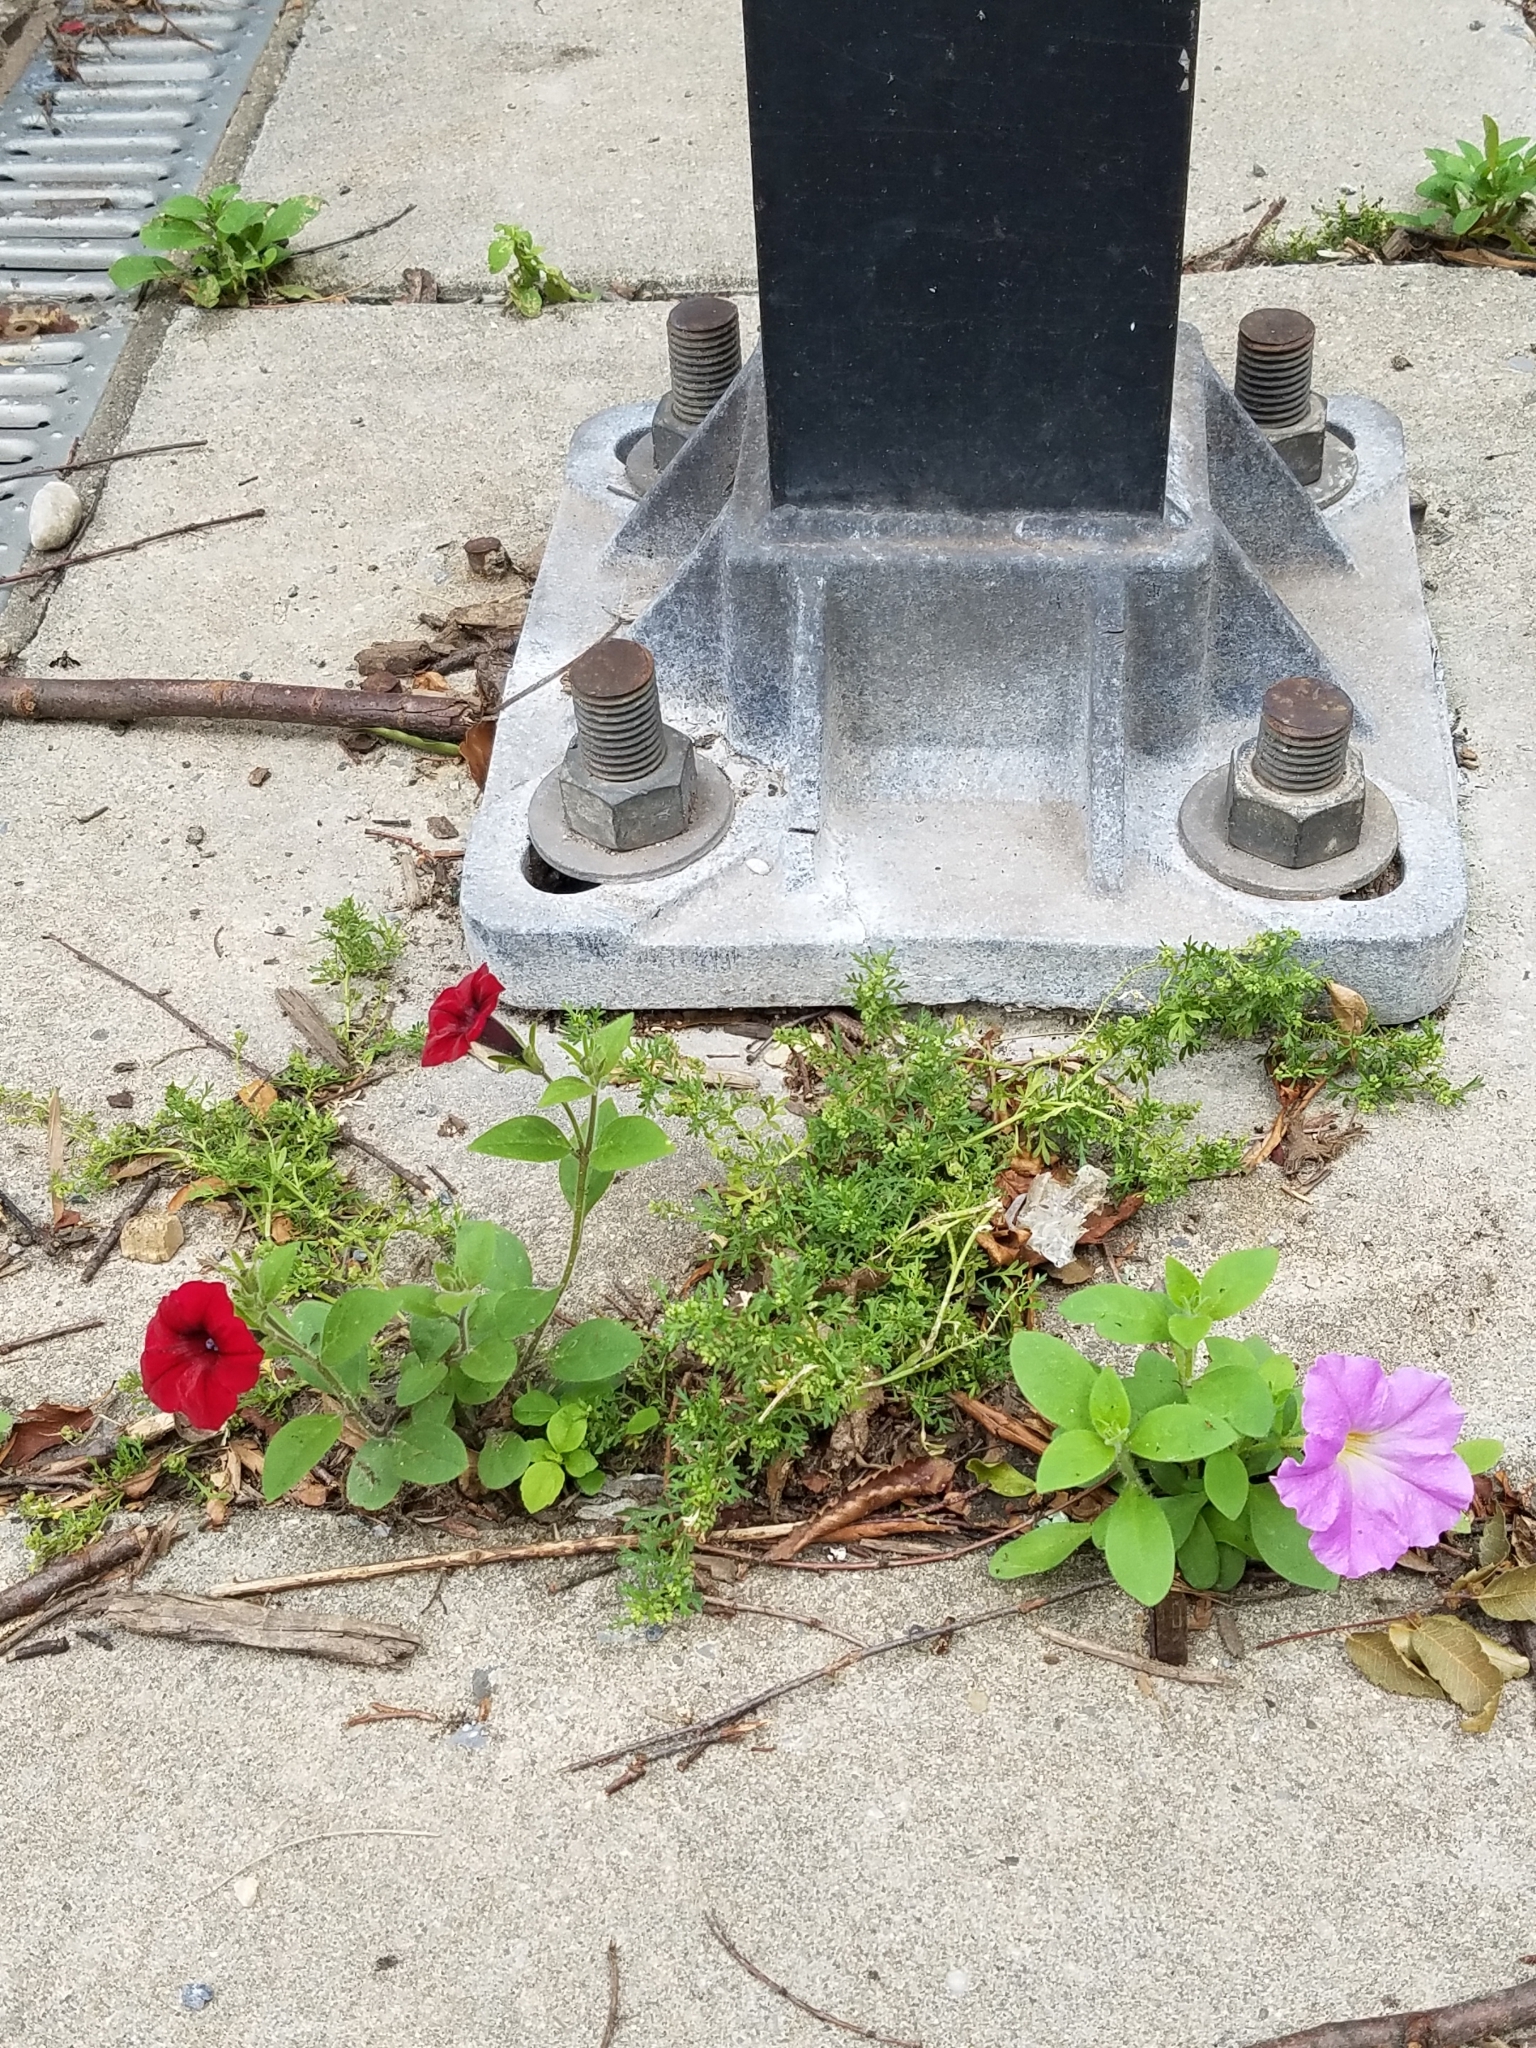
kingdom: Plantae
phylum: Tracheophyta
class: Magnoliopsida
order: Solanales
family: Solanaceae
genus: Petunia
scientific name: Petunia atkinsiana
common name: Petunia
